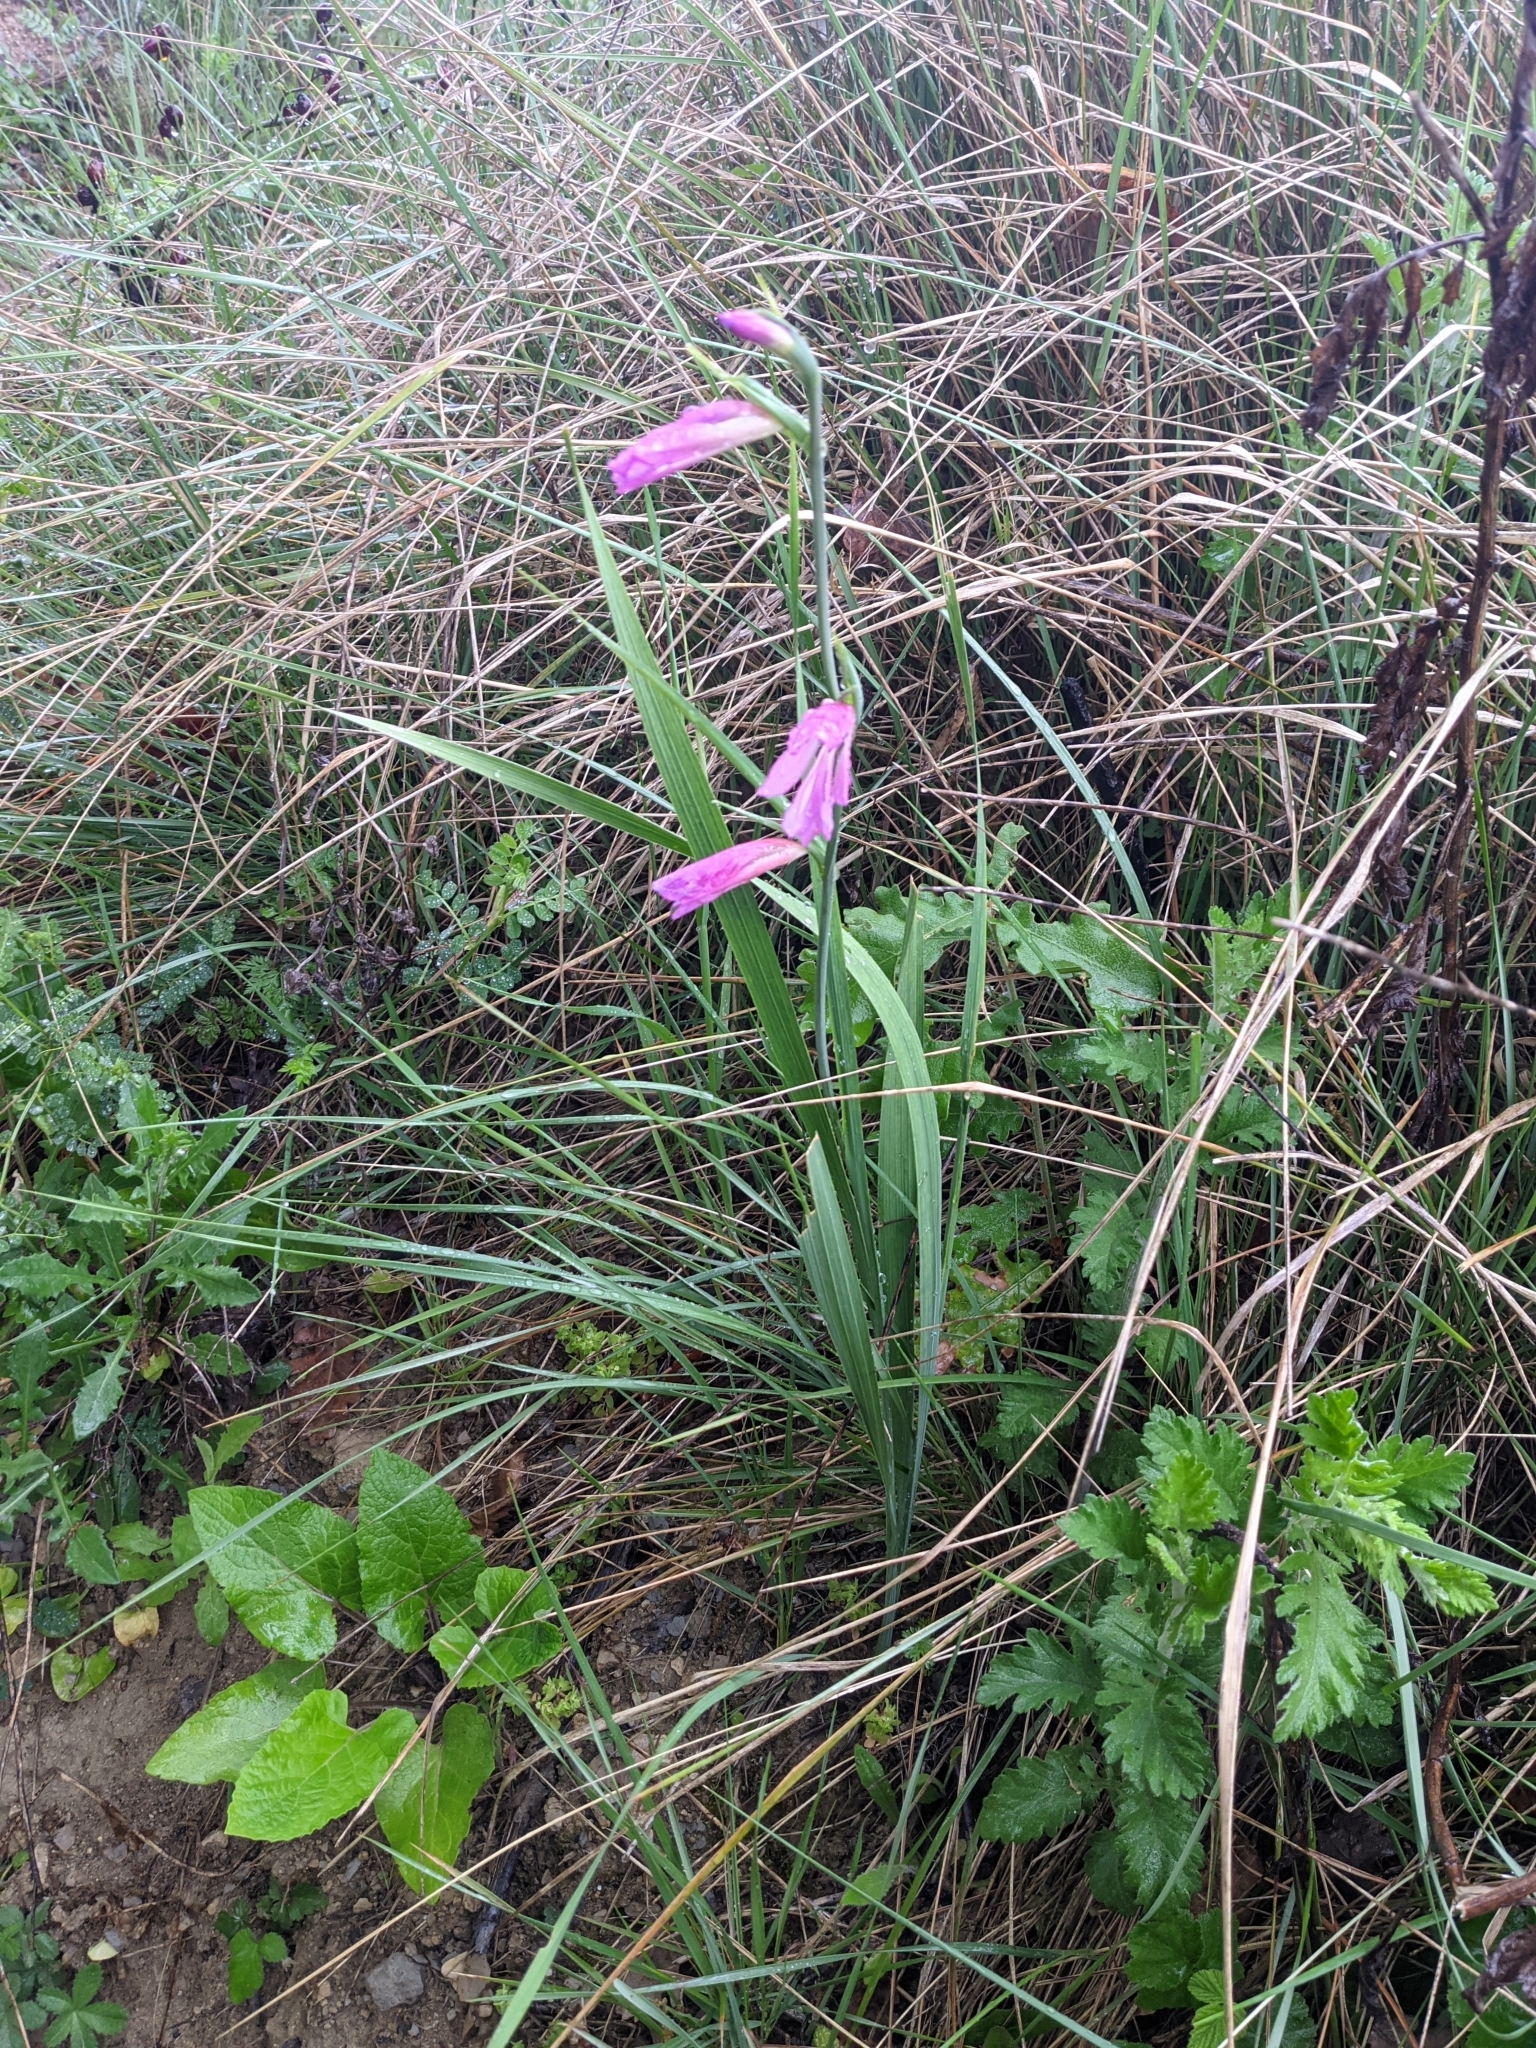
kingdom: Plantae
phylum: Tracheophyta
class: Liliopsida
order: Asparagales
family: Iridaceae
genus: Gladiolus
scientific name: Gladiolus italicus
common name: Field gladiolus
